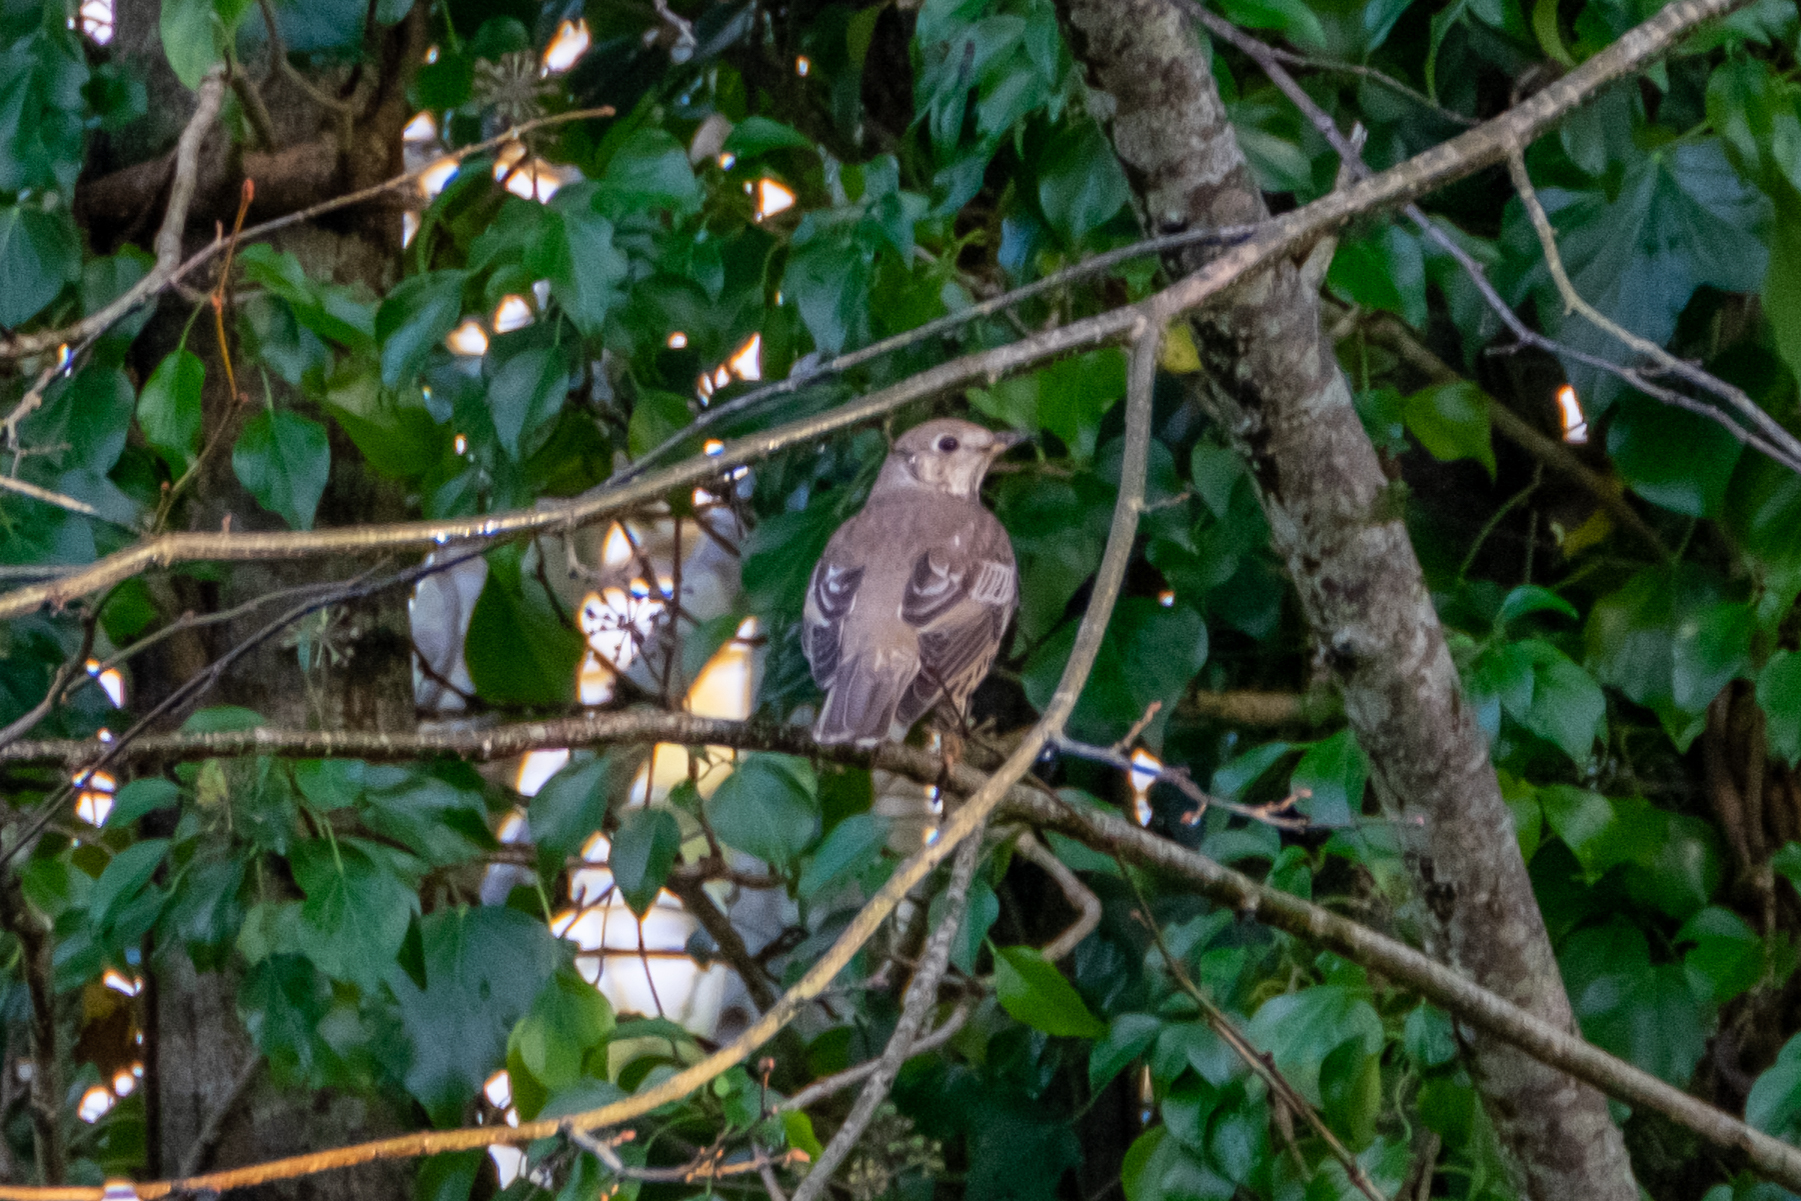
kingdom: Animalia
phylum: Chordata
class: Aves
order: Passeriformes
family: Turdidae
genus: Turdus
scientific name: Turdus viscivorus
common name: Mistle thrush
